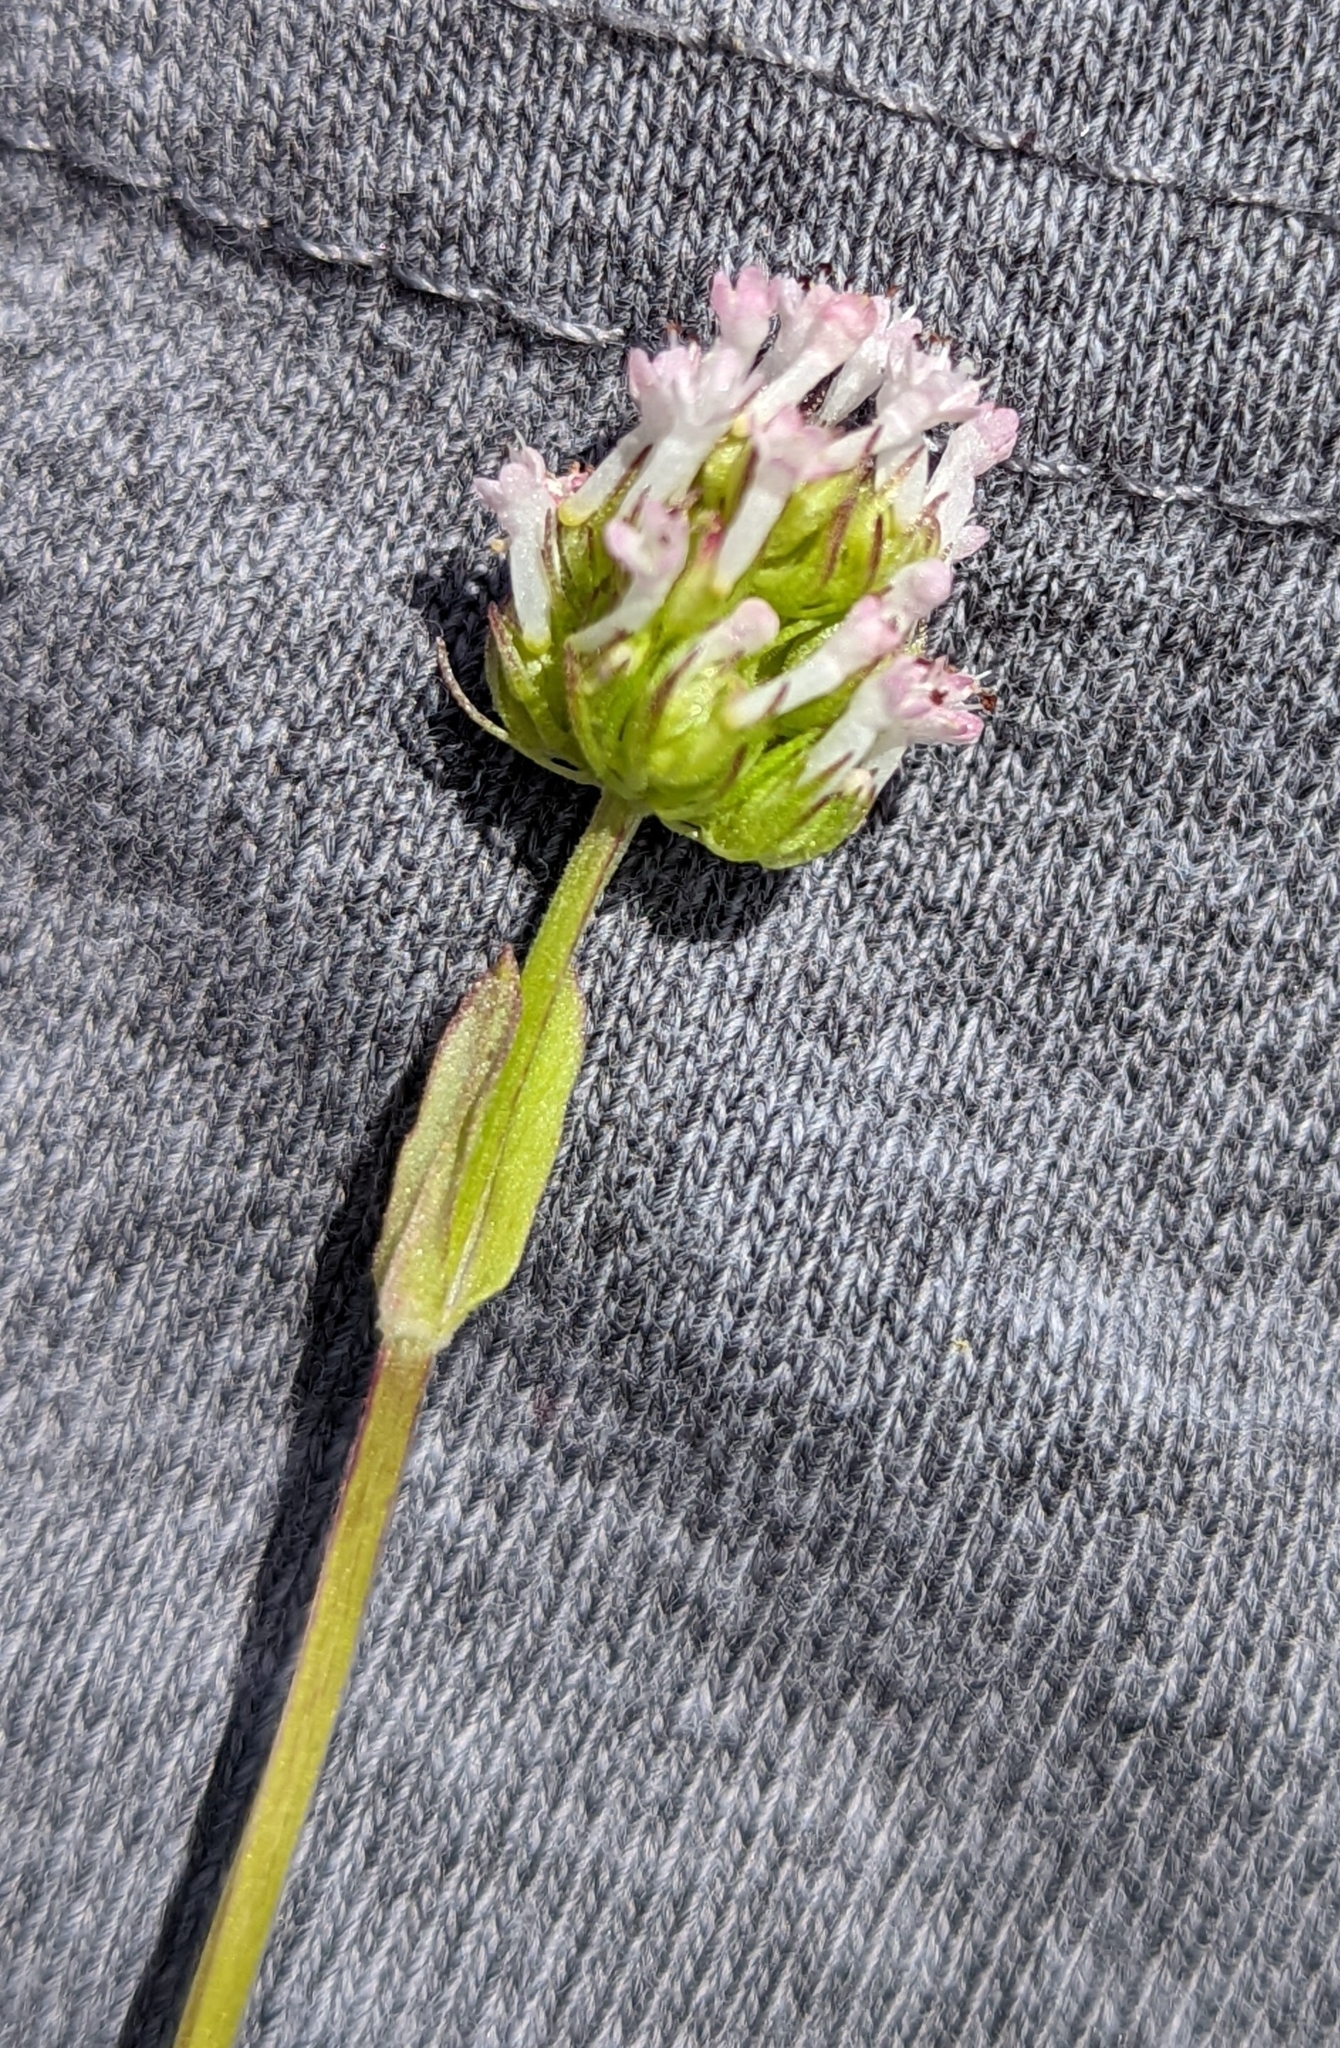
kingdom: Plantae
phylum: Tracheophyta
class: Magnoliopsida
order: Dipsacales
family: Caprifoliaceae
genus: Plectritis
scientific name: Plectritis macroptera
